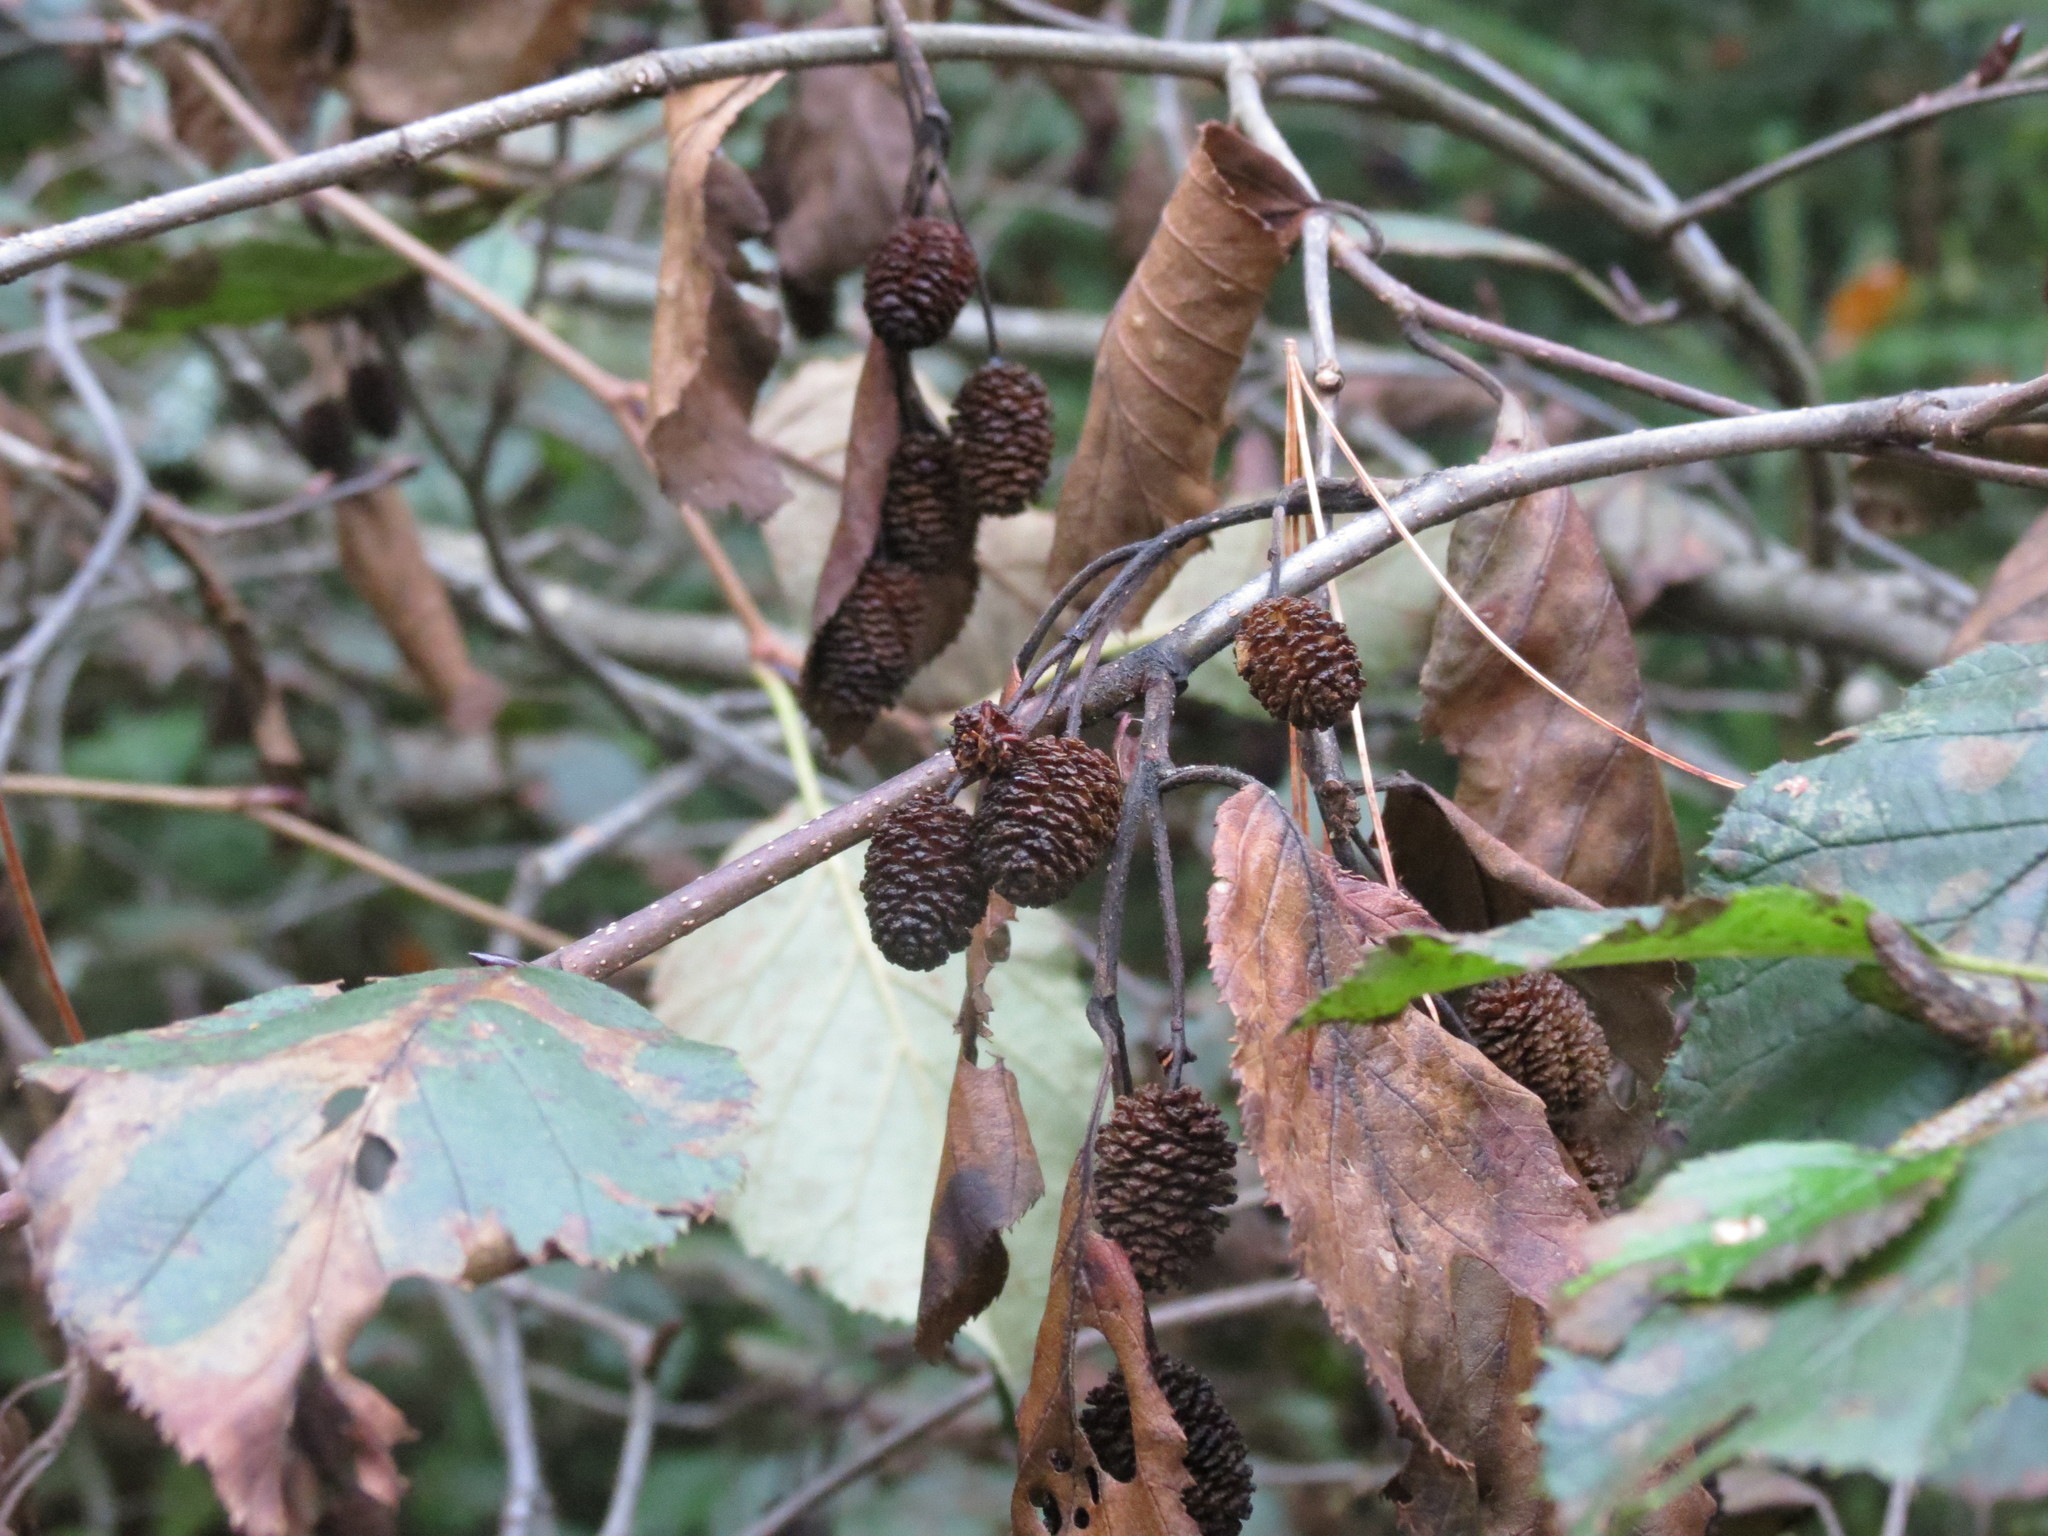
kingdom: Plantae
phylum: Tracheophyta
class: Magnoliopsida
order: Fagales
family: Betulaceae
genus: Alnus
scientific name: Alnus alnobetula
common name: Green alder
